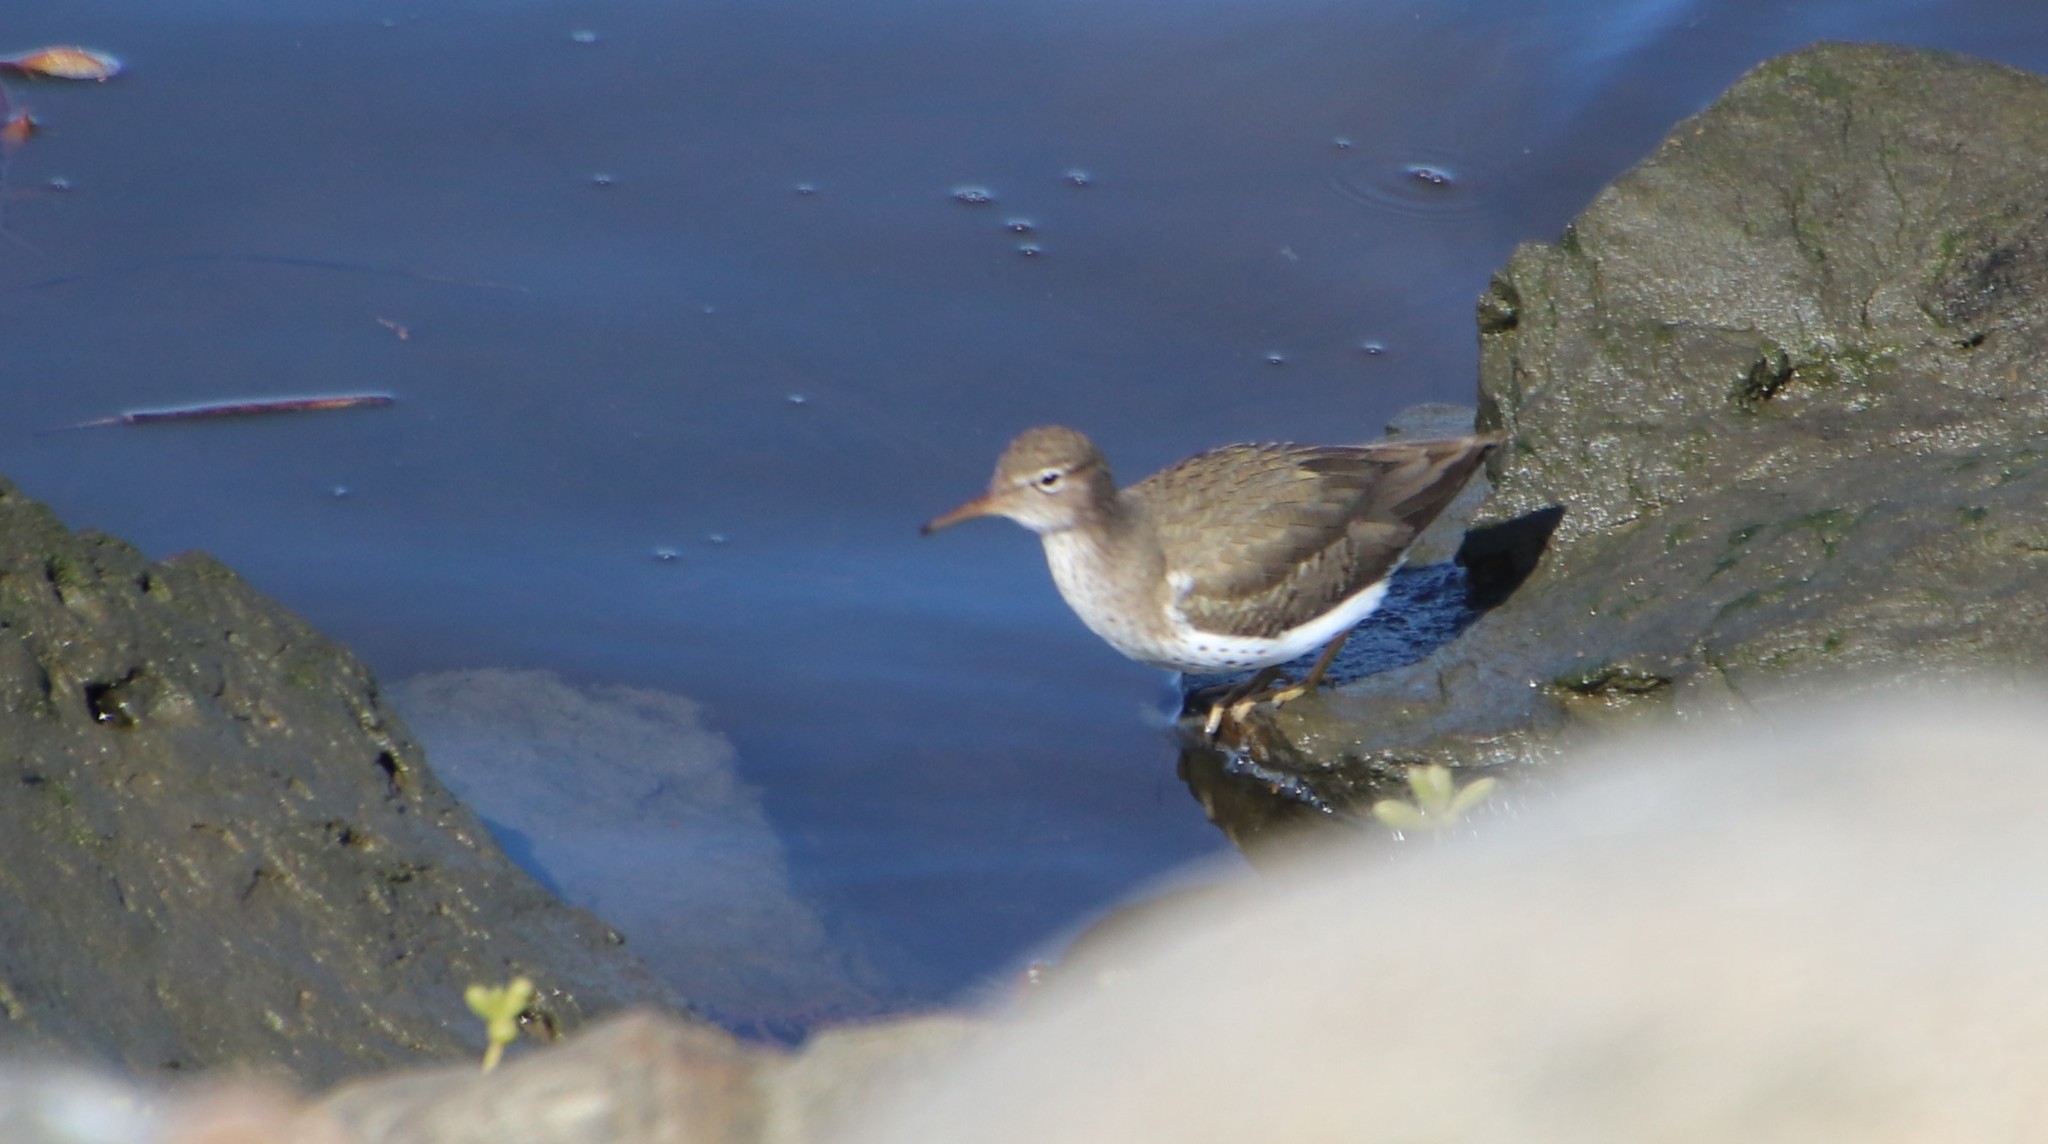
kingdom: Animalia
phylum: Chordata
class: Aves
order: Charadriiformes
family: Scolopacidae
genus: Actitis
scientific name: Actitis macularius
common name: Spotted sandpiper
